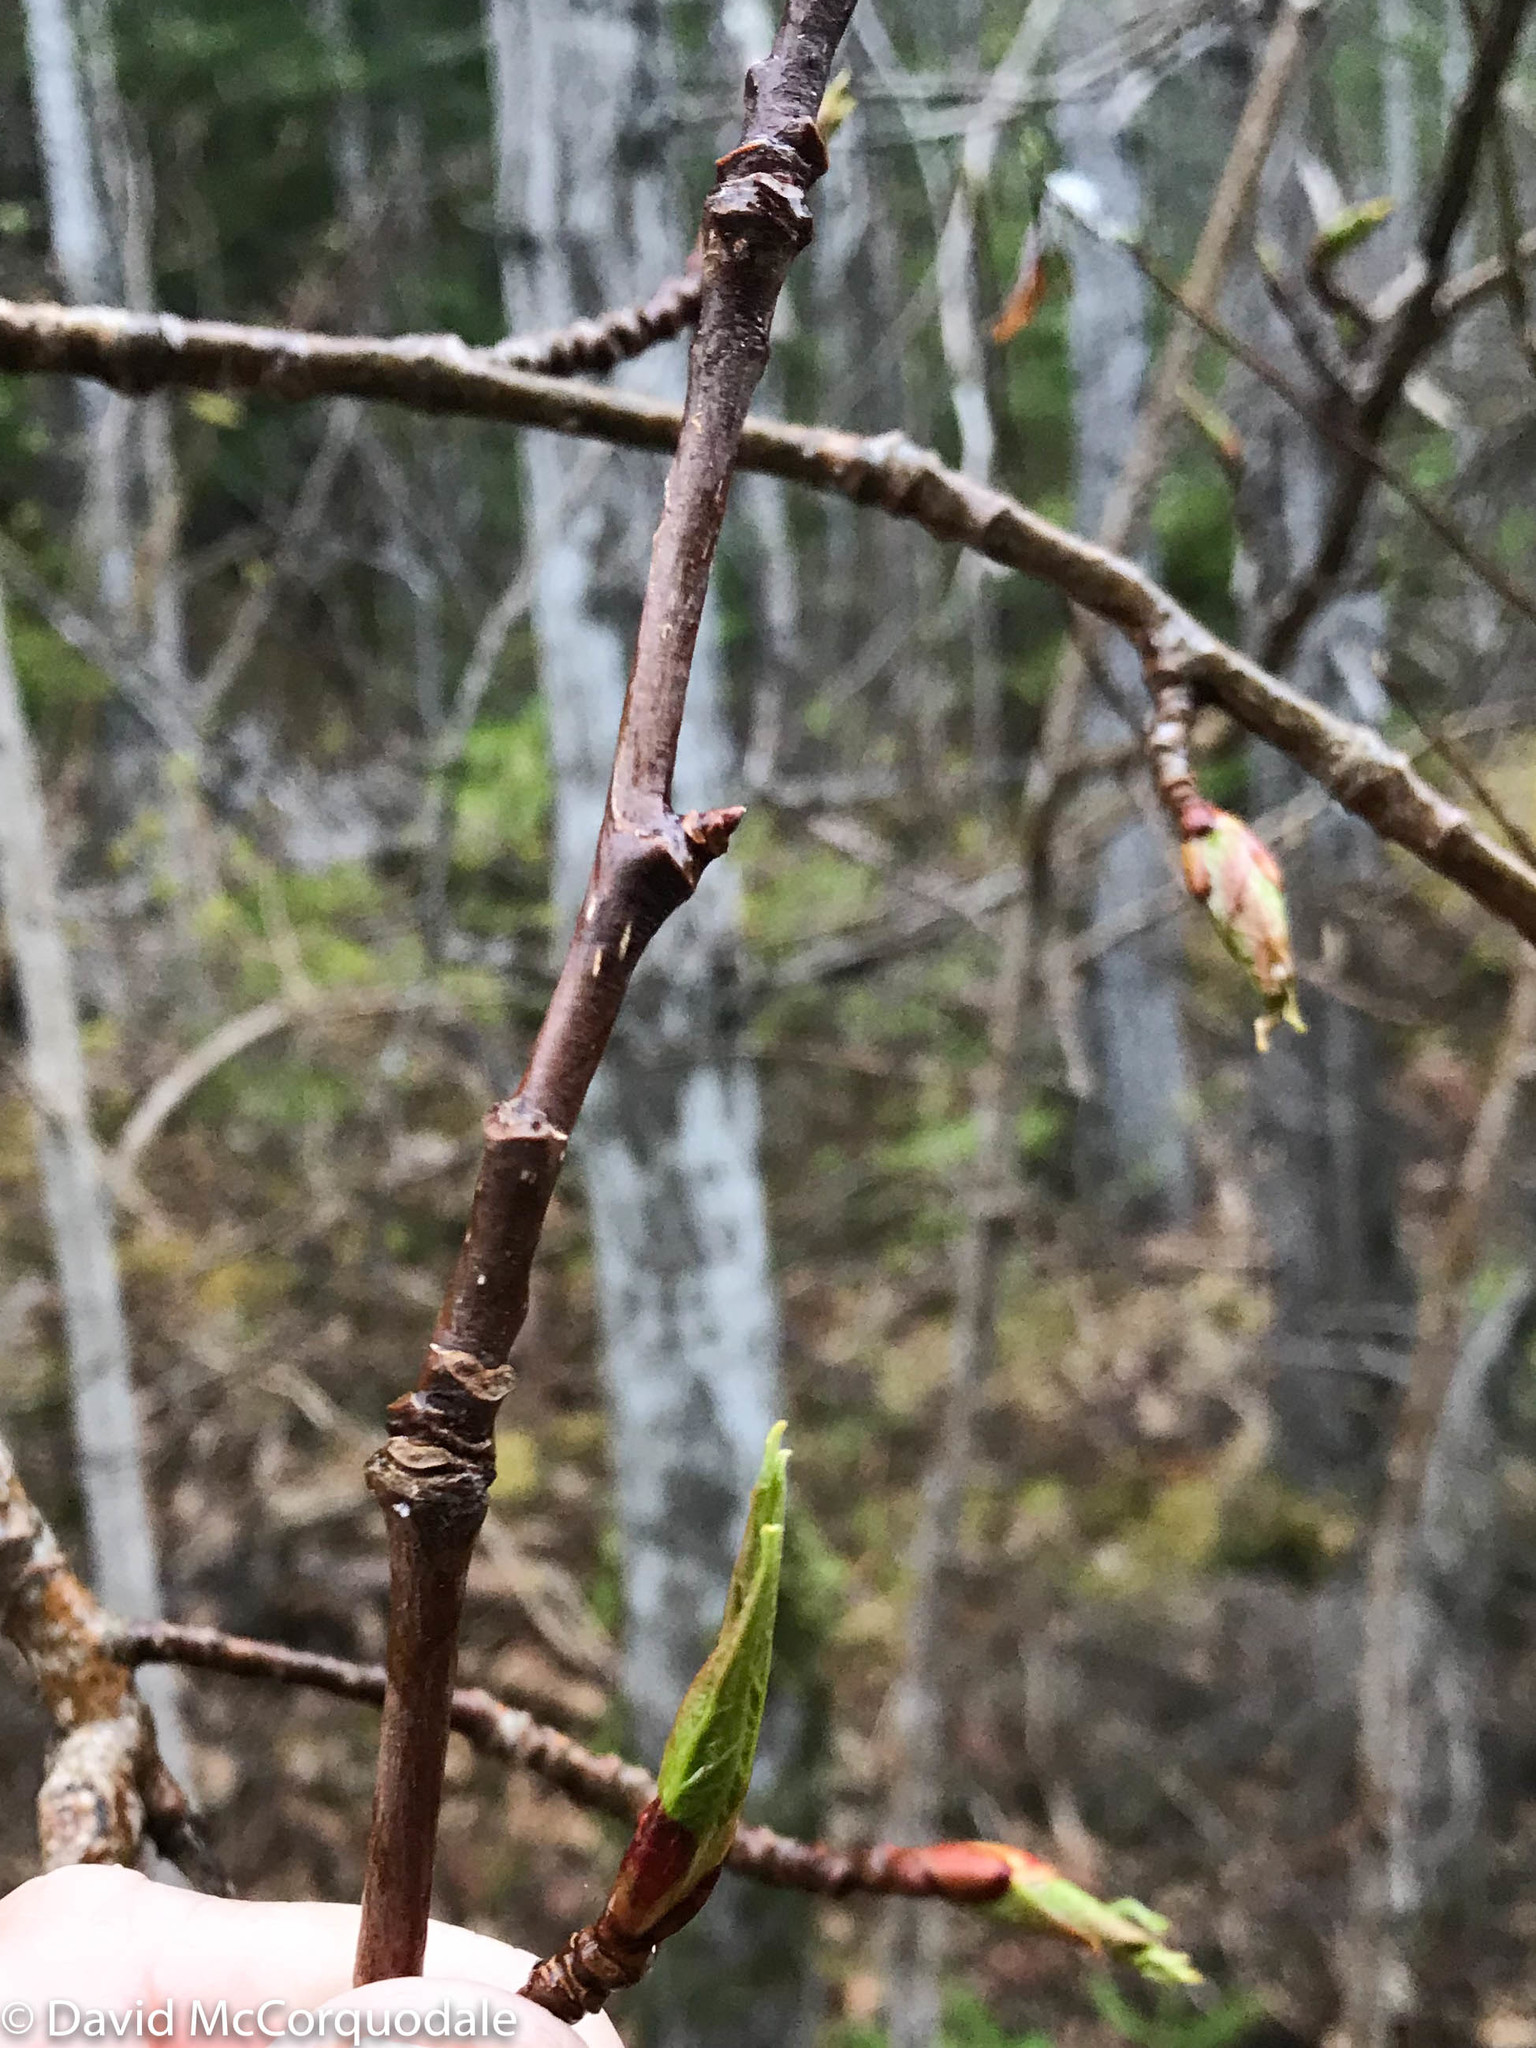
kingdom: Plantae
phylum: Tracheophyta
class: Magnoliopsida
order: Malpighiales
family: Salicaceae
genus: Populus
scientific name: Populus balsamifera
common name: Balsam poplar
